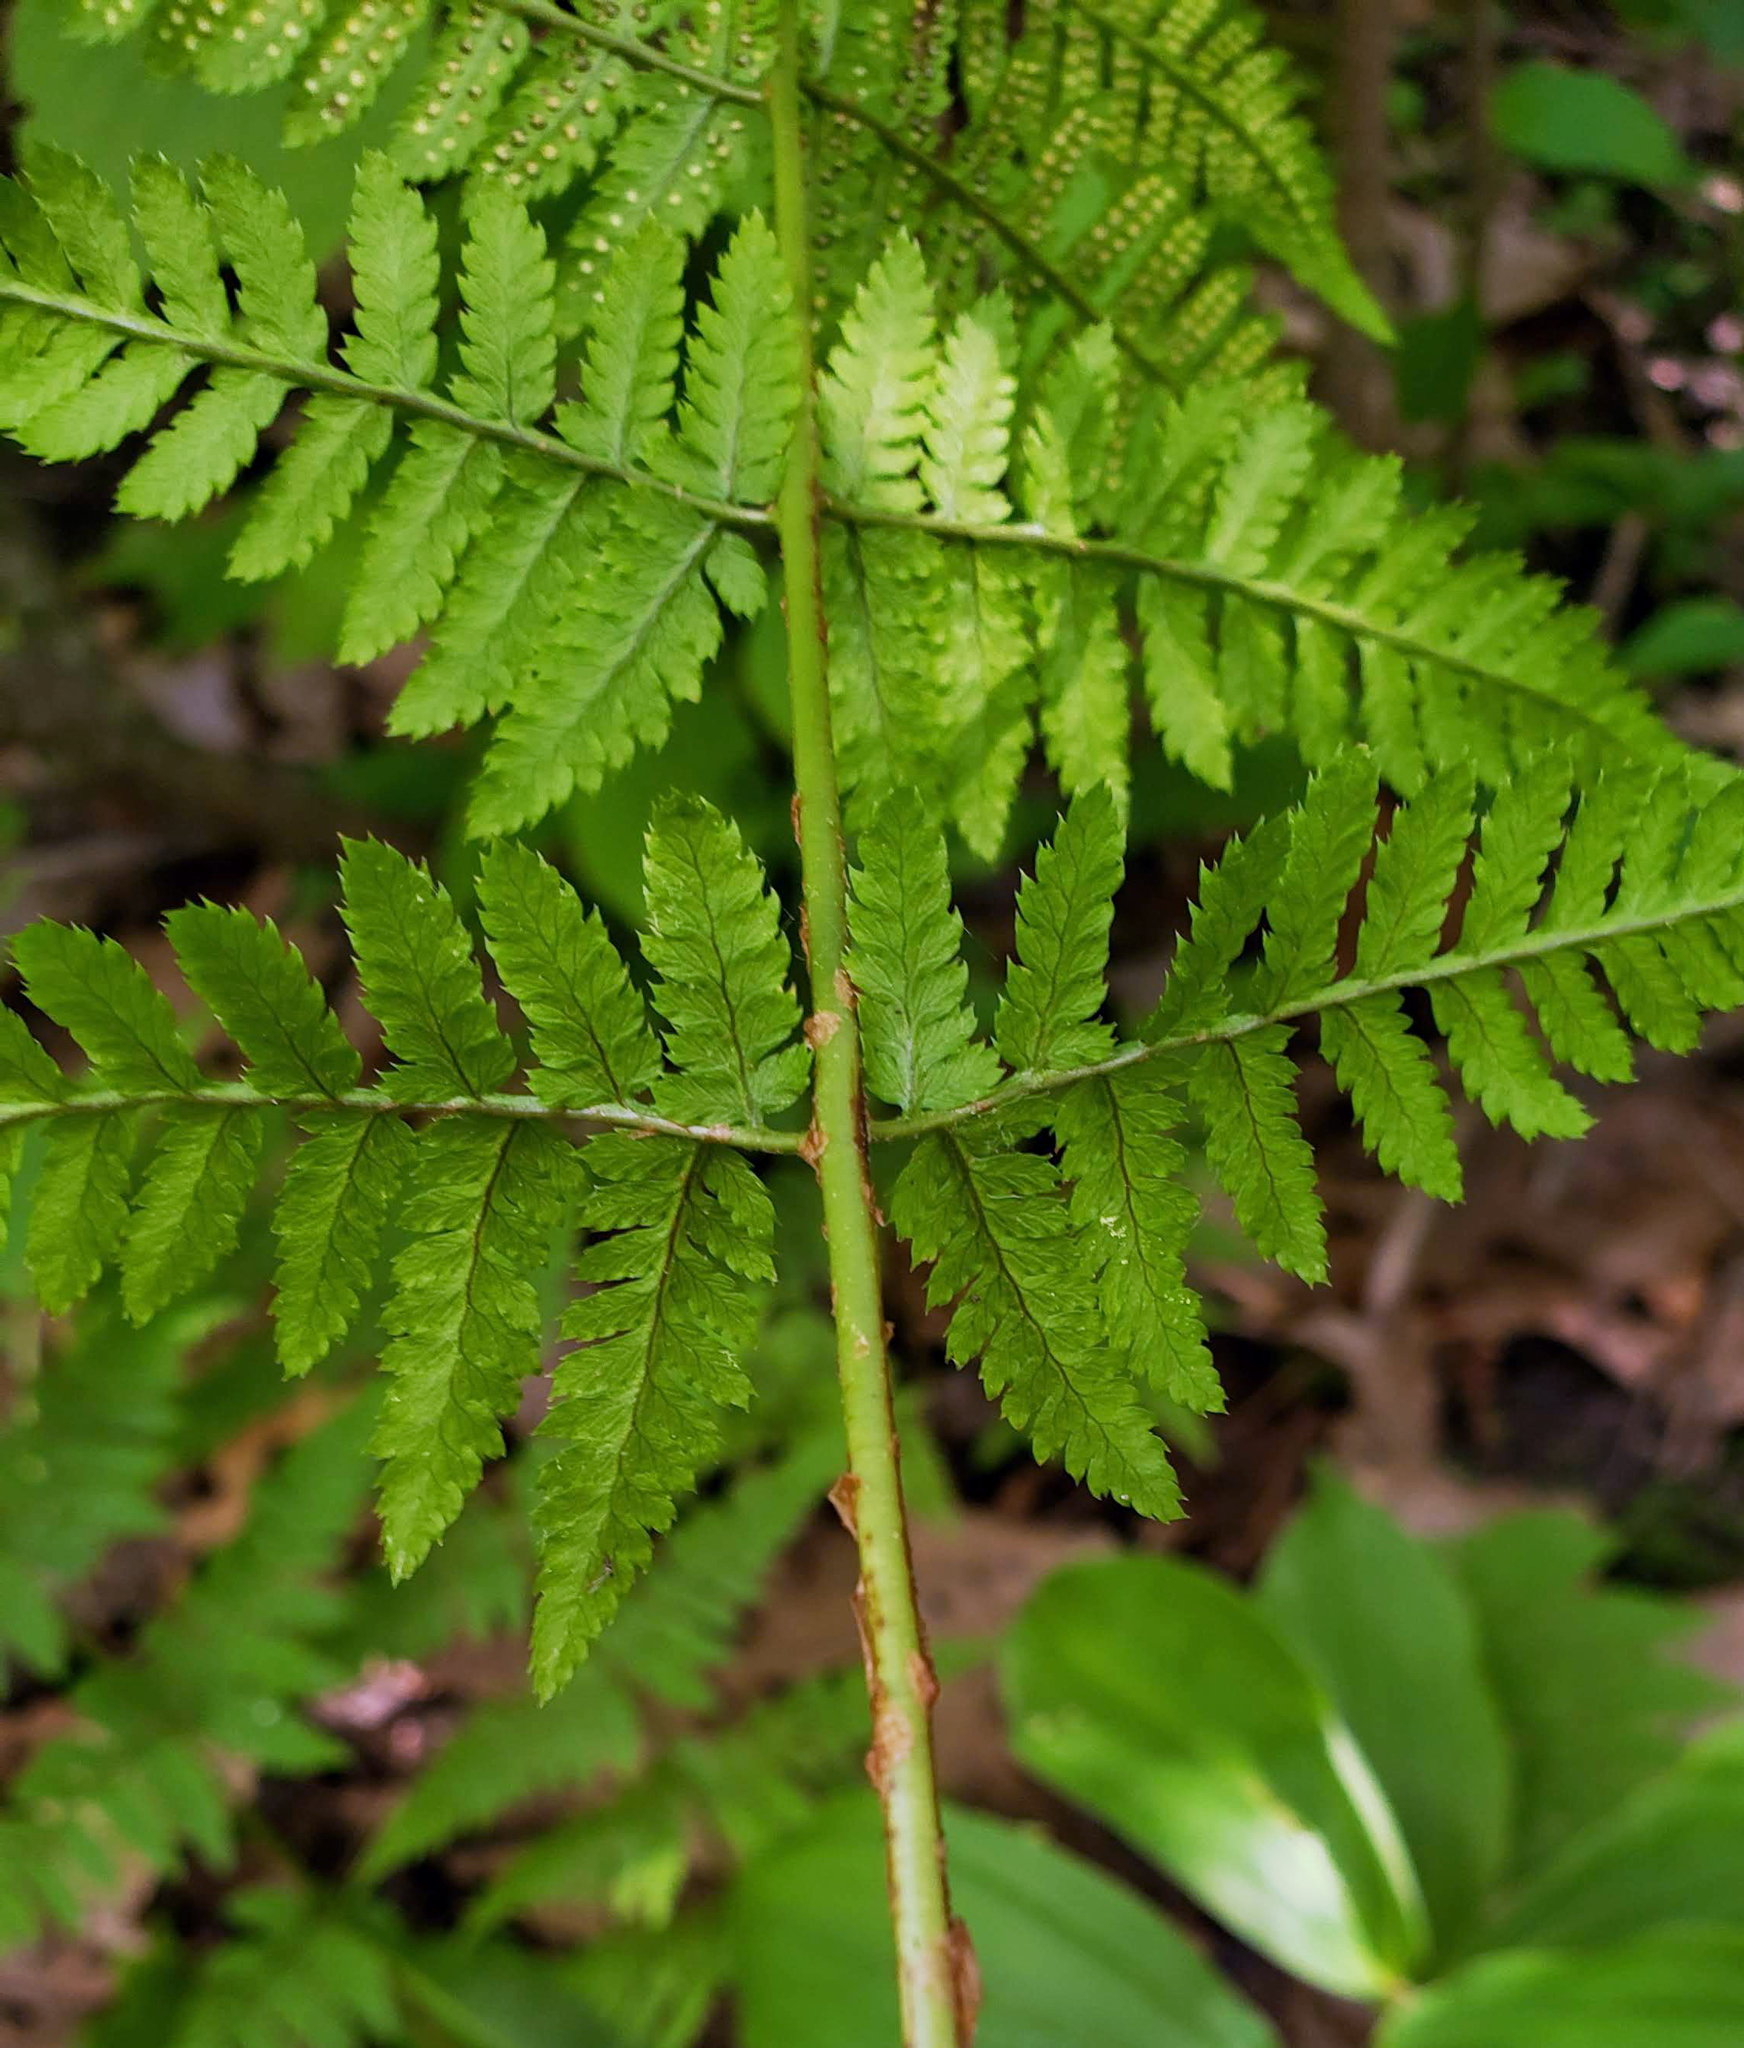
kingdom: Plantae
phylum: Tracheophyta
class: Polypodiopsida
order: Polypodiales
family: Dryopteridaceae
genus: Dryopteris
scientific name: Dryopteris carthusiana
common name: Narrow buckler-fern
